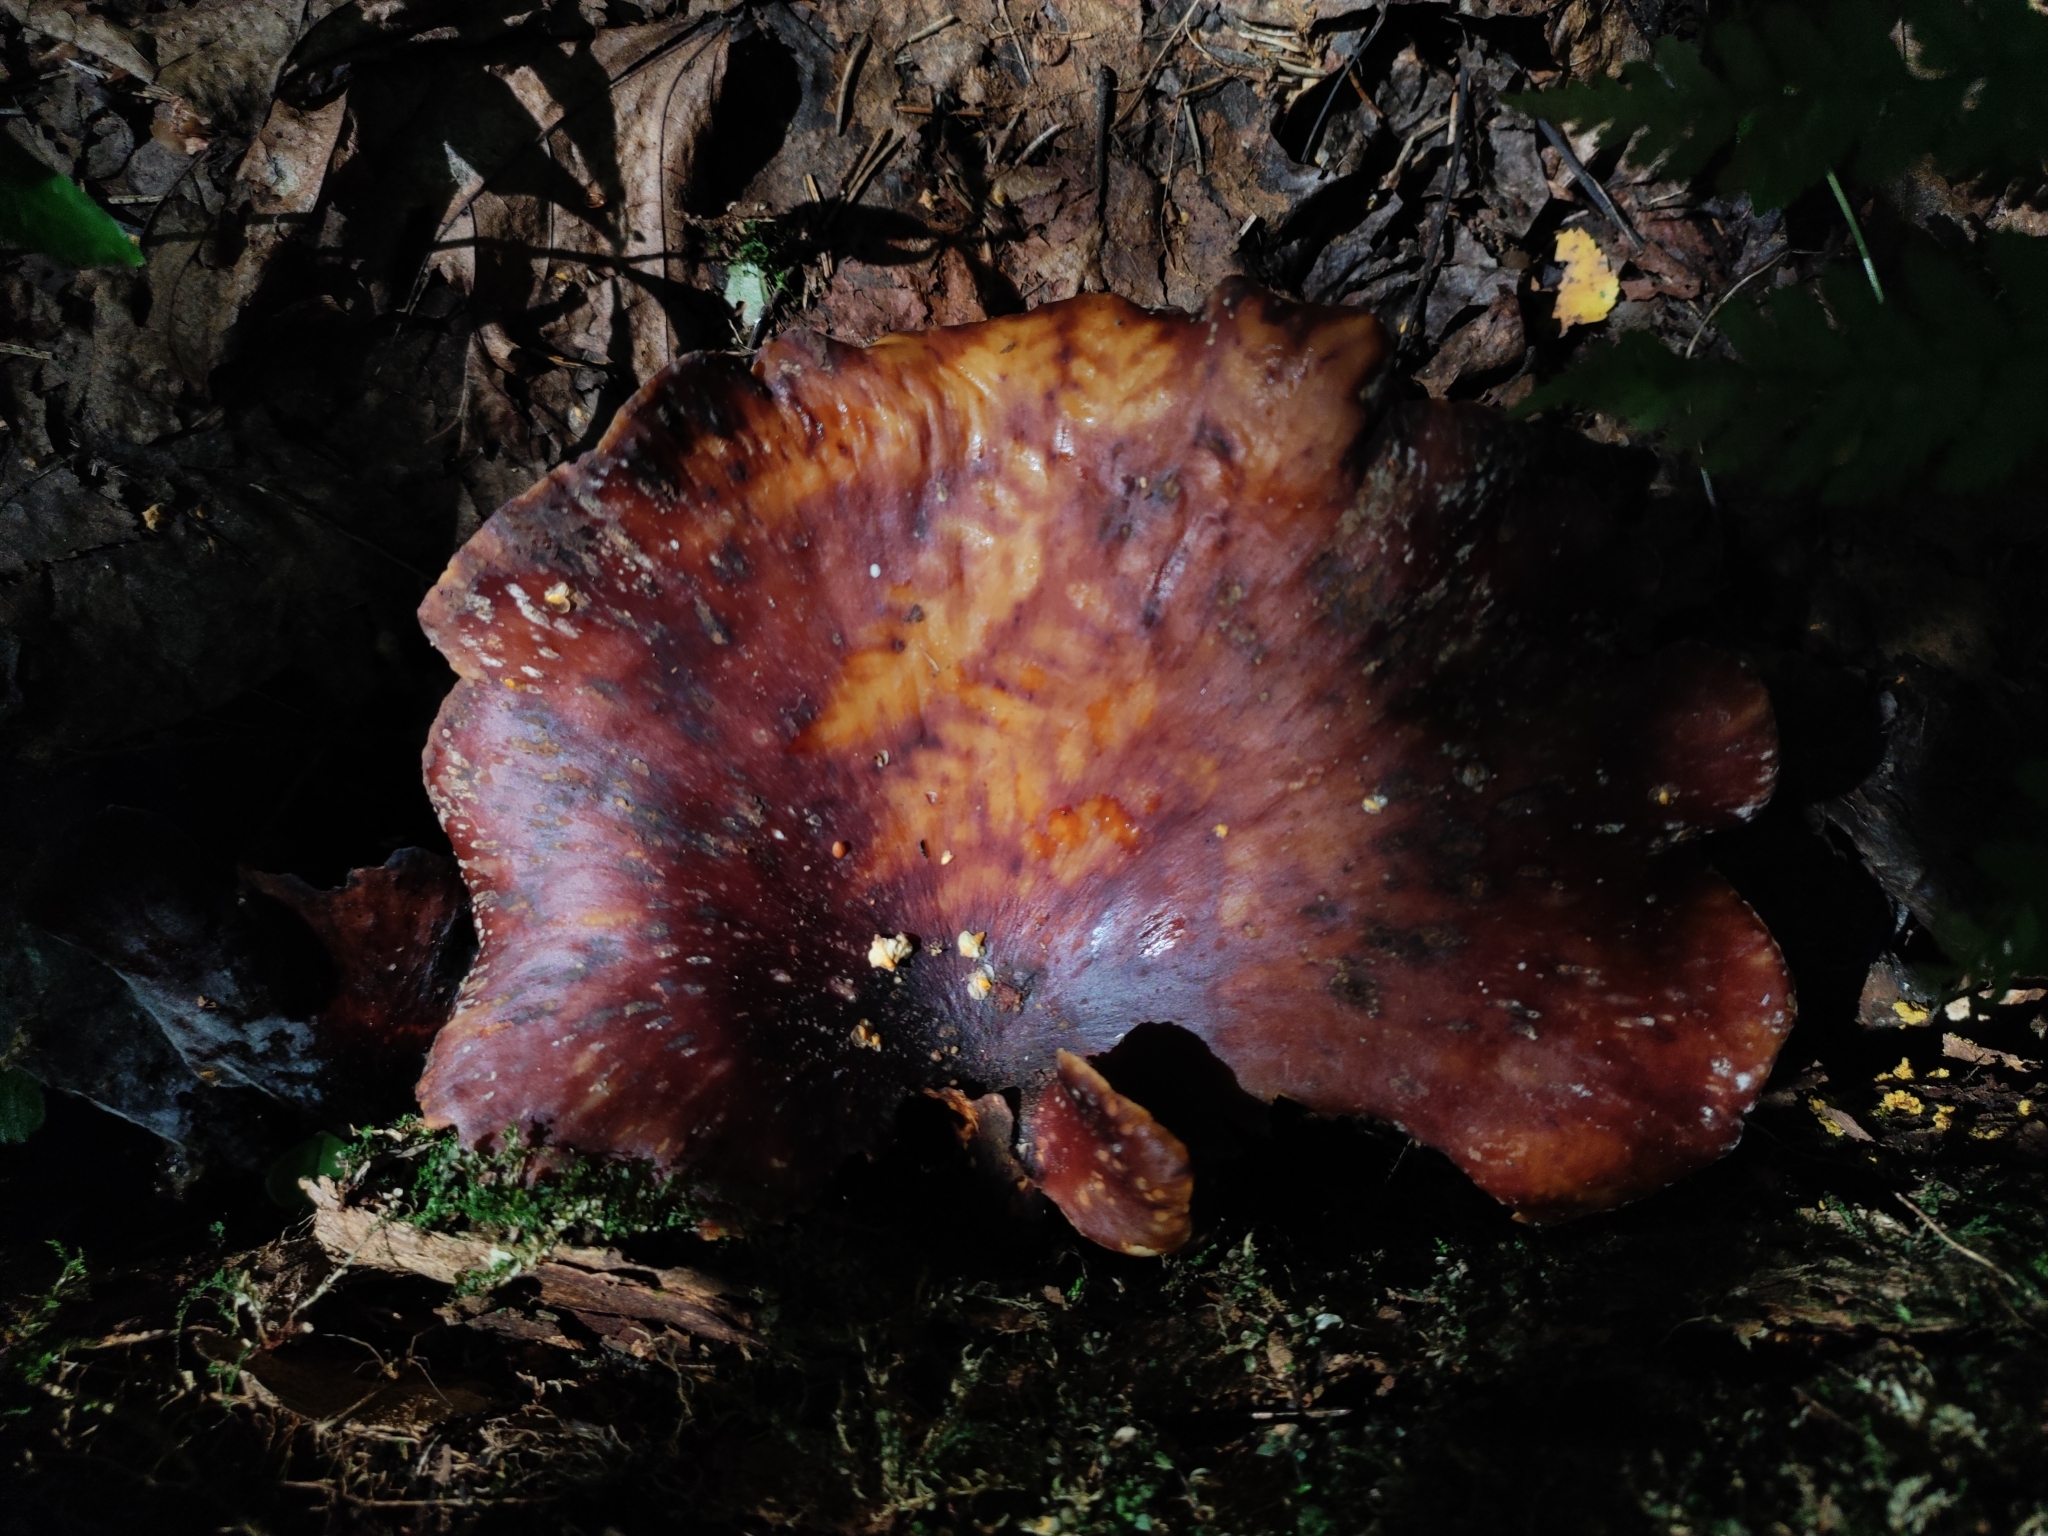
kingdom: Fungi
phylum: Basidiomycota
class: Agaricomycetes
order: Polyporales
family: Polyporaceae
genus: Picipes
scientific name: Picipes badius
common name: Bay polypore
